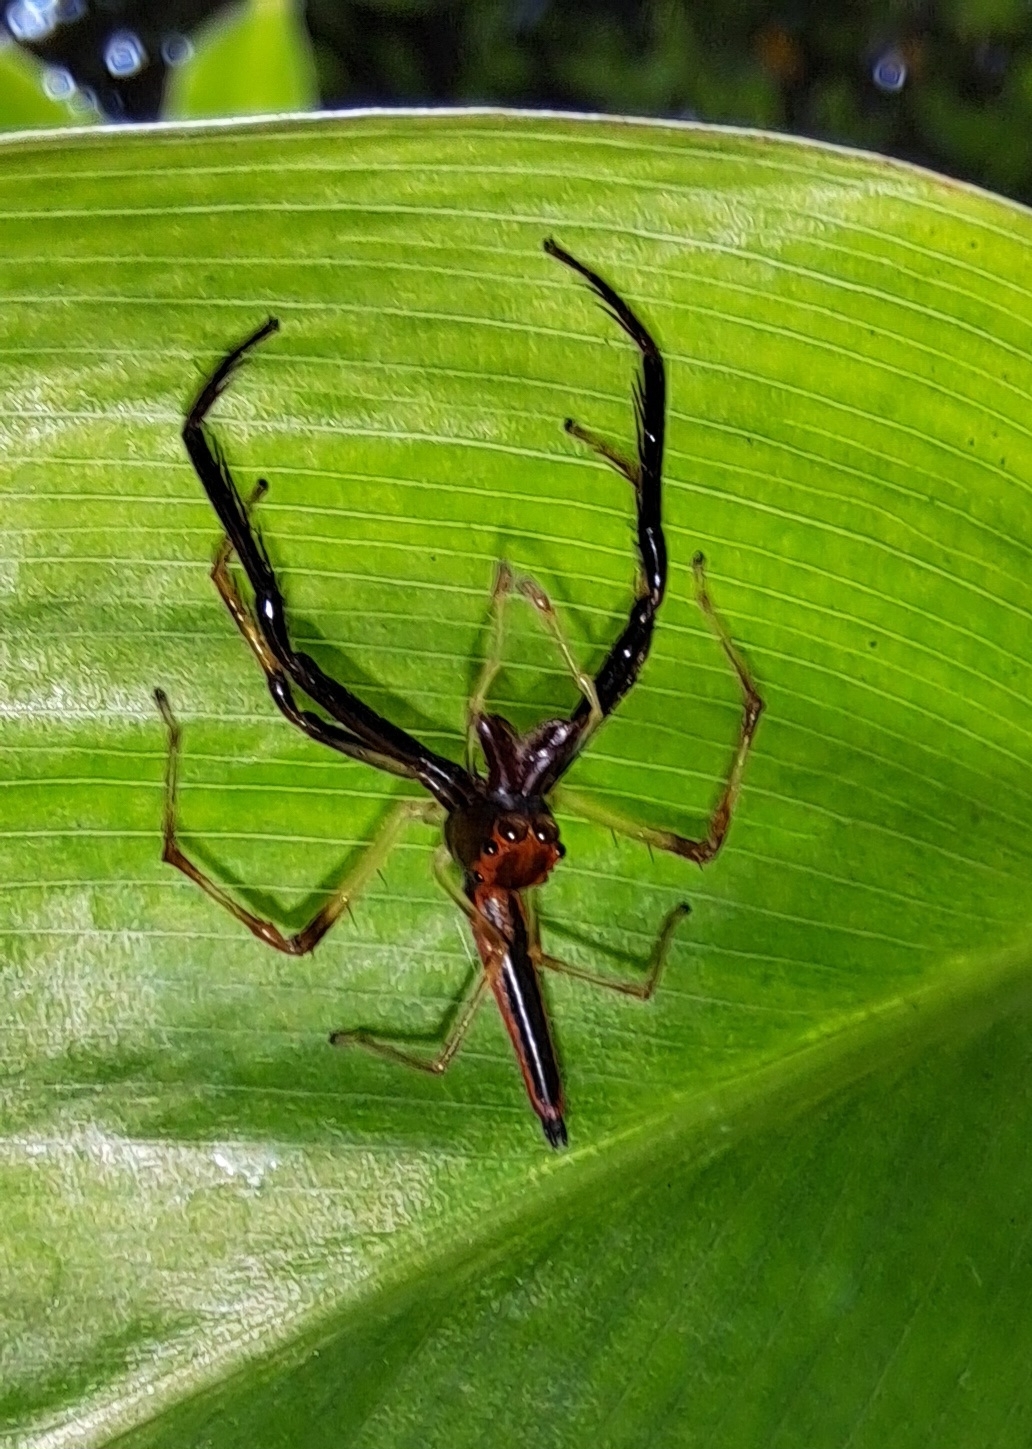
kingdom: Animalia
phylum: Arthropoda
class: Arachnida
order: Araneae
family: Salticidae
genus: Viciria
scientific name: Viciria pavesii
